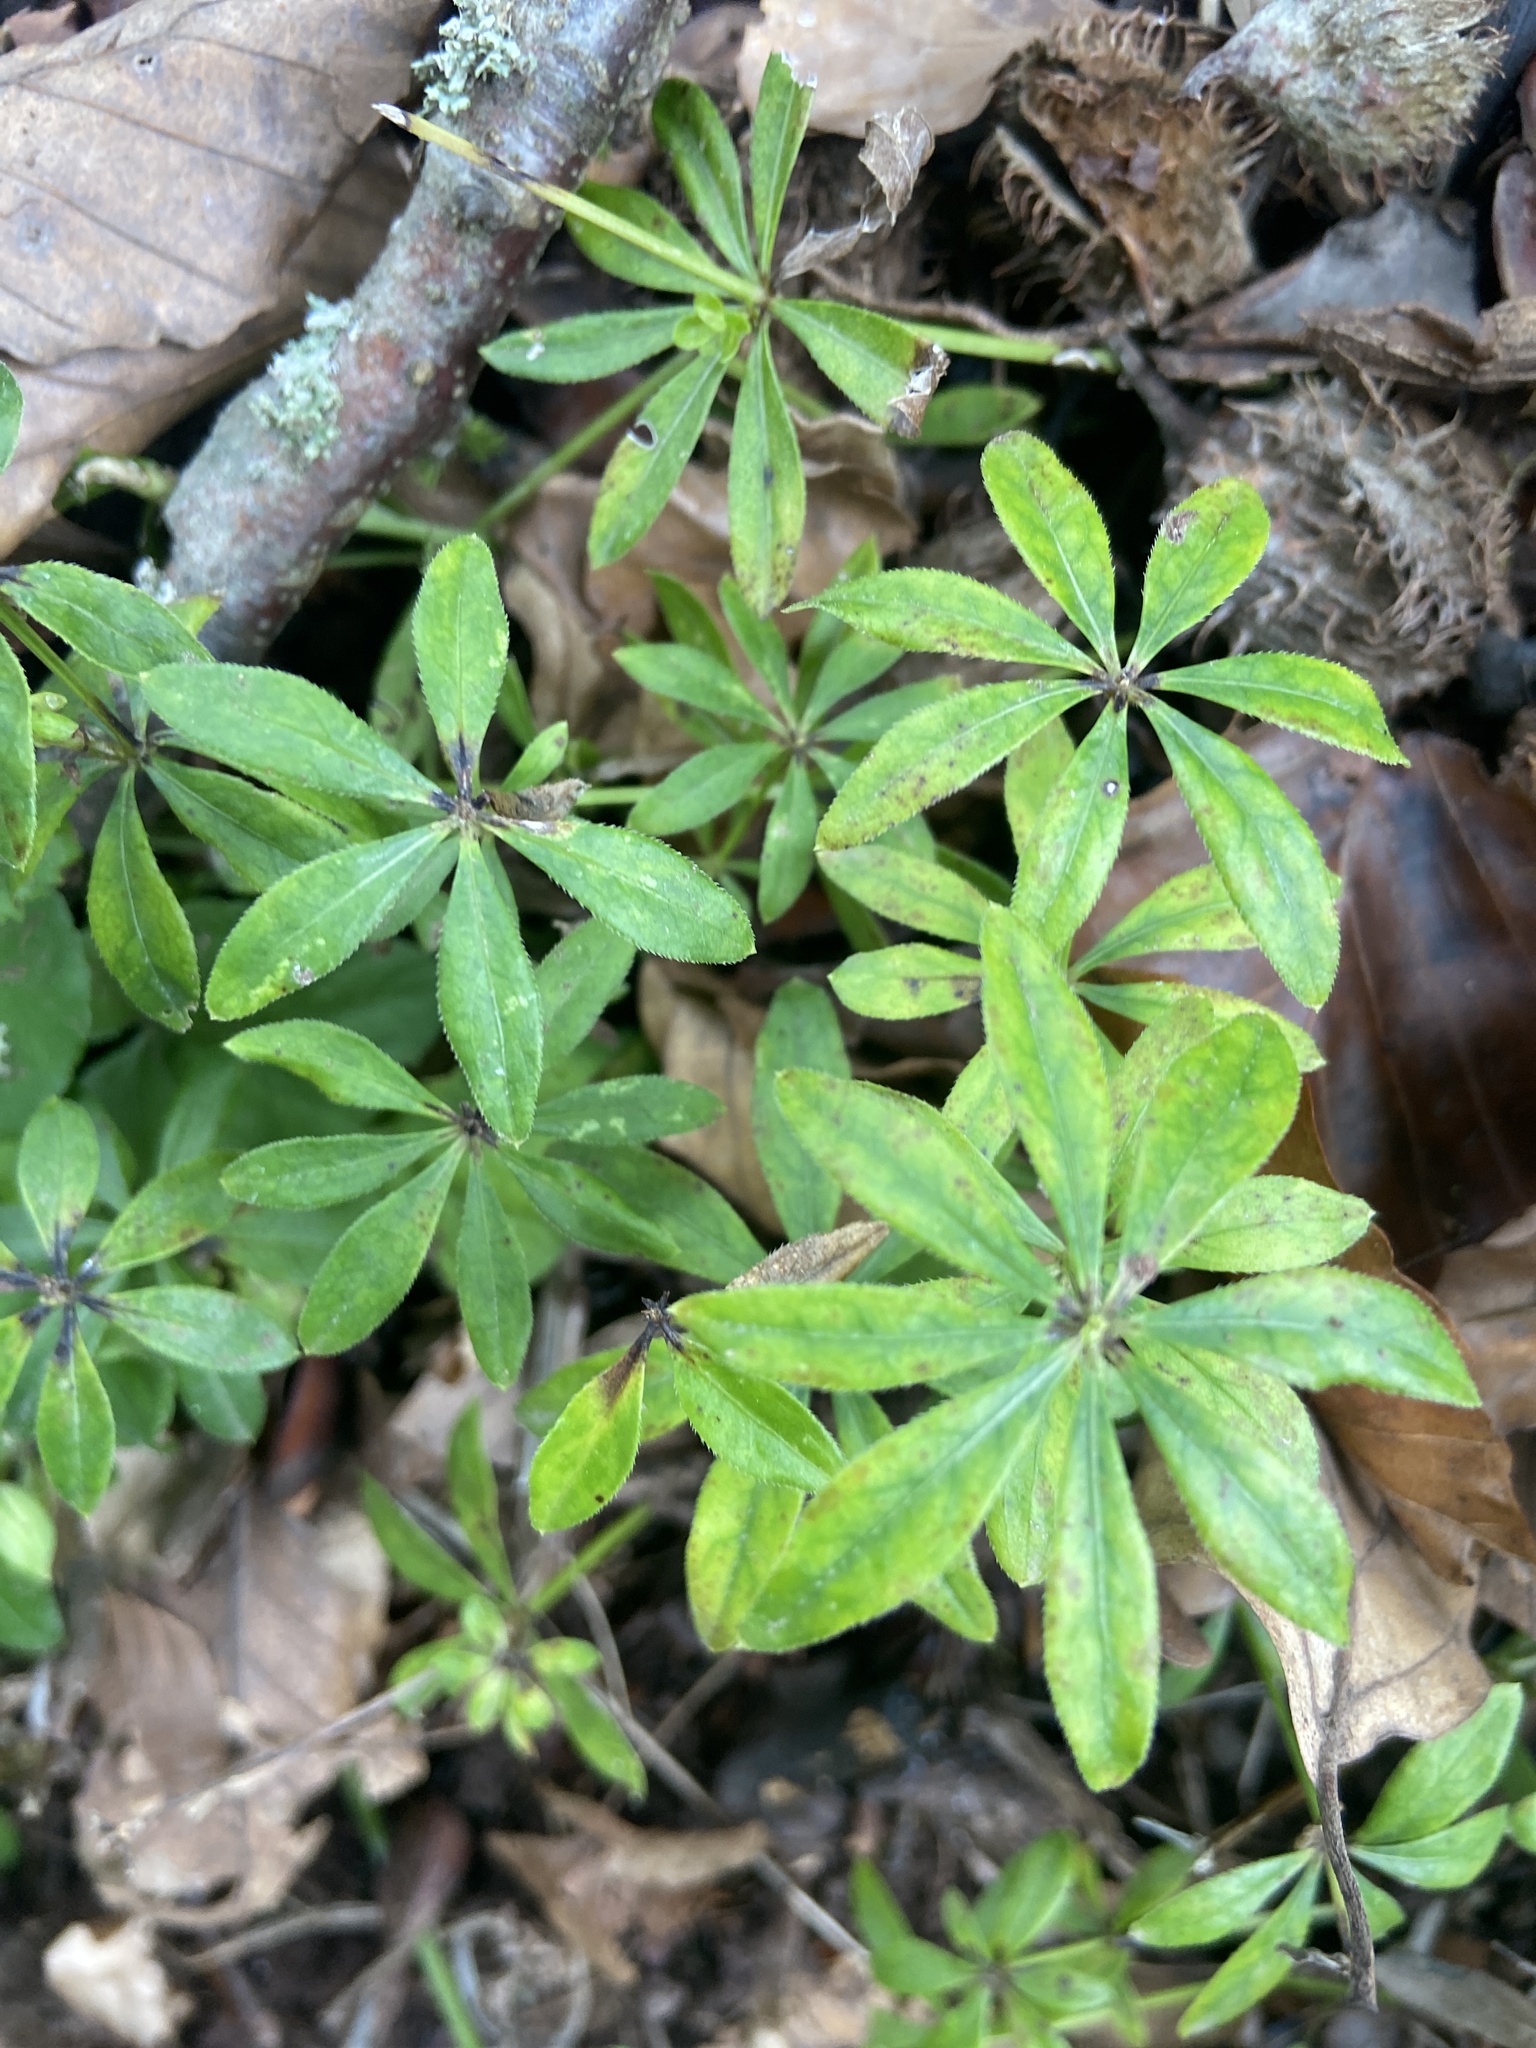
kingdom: Plantae
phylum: Tracheophyta
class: Magnoliopsida
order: Gentianales
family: Rubiaceae
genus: Galium
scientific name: Galium odoratum
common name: Sweet woodruff
